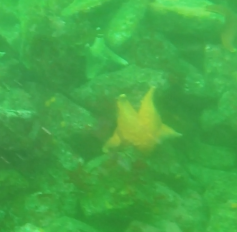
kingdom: Animalia
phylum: Echinodermata
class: Asteroidea
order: Valvatida
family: Asterinidae
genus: Patiria
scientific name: Patiria miniata
